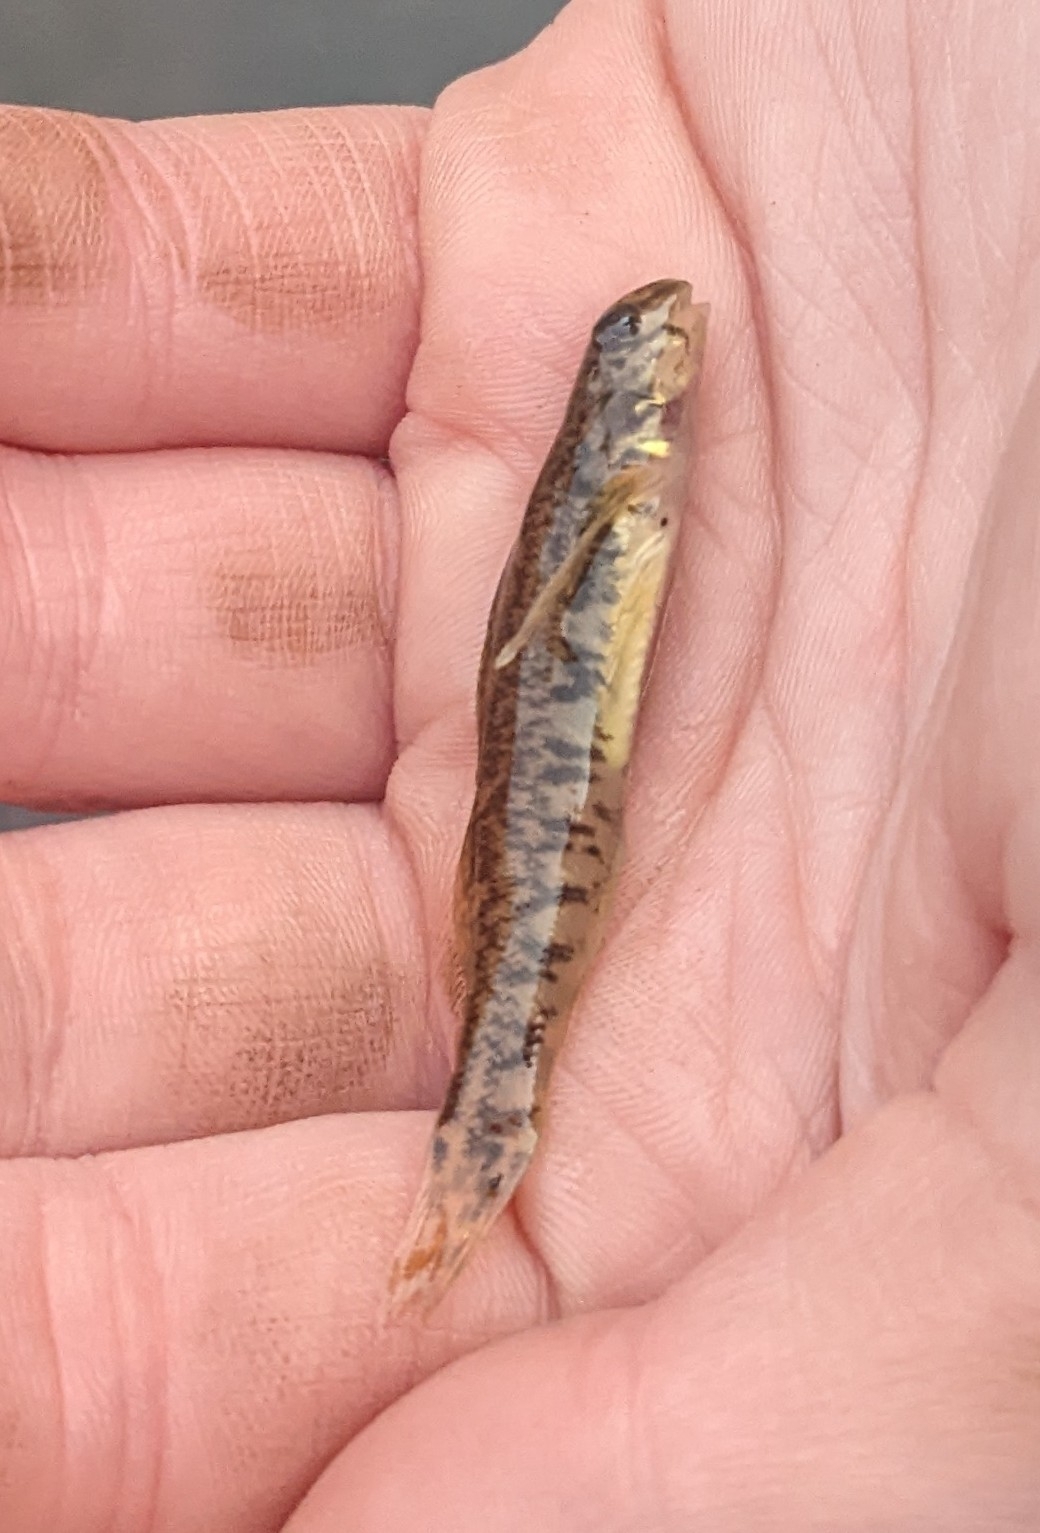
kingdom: Animalia
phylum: Chordata
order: Perciformes
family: Percidae
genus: Etheostoma
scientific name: Etheostoma blennioides
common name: Greenside darter
